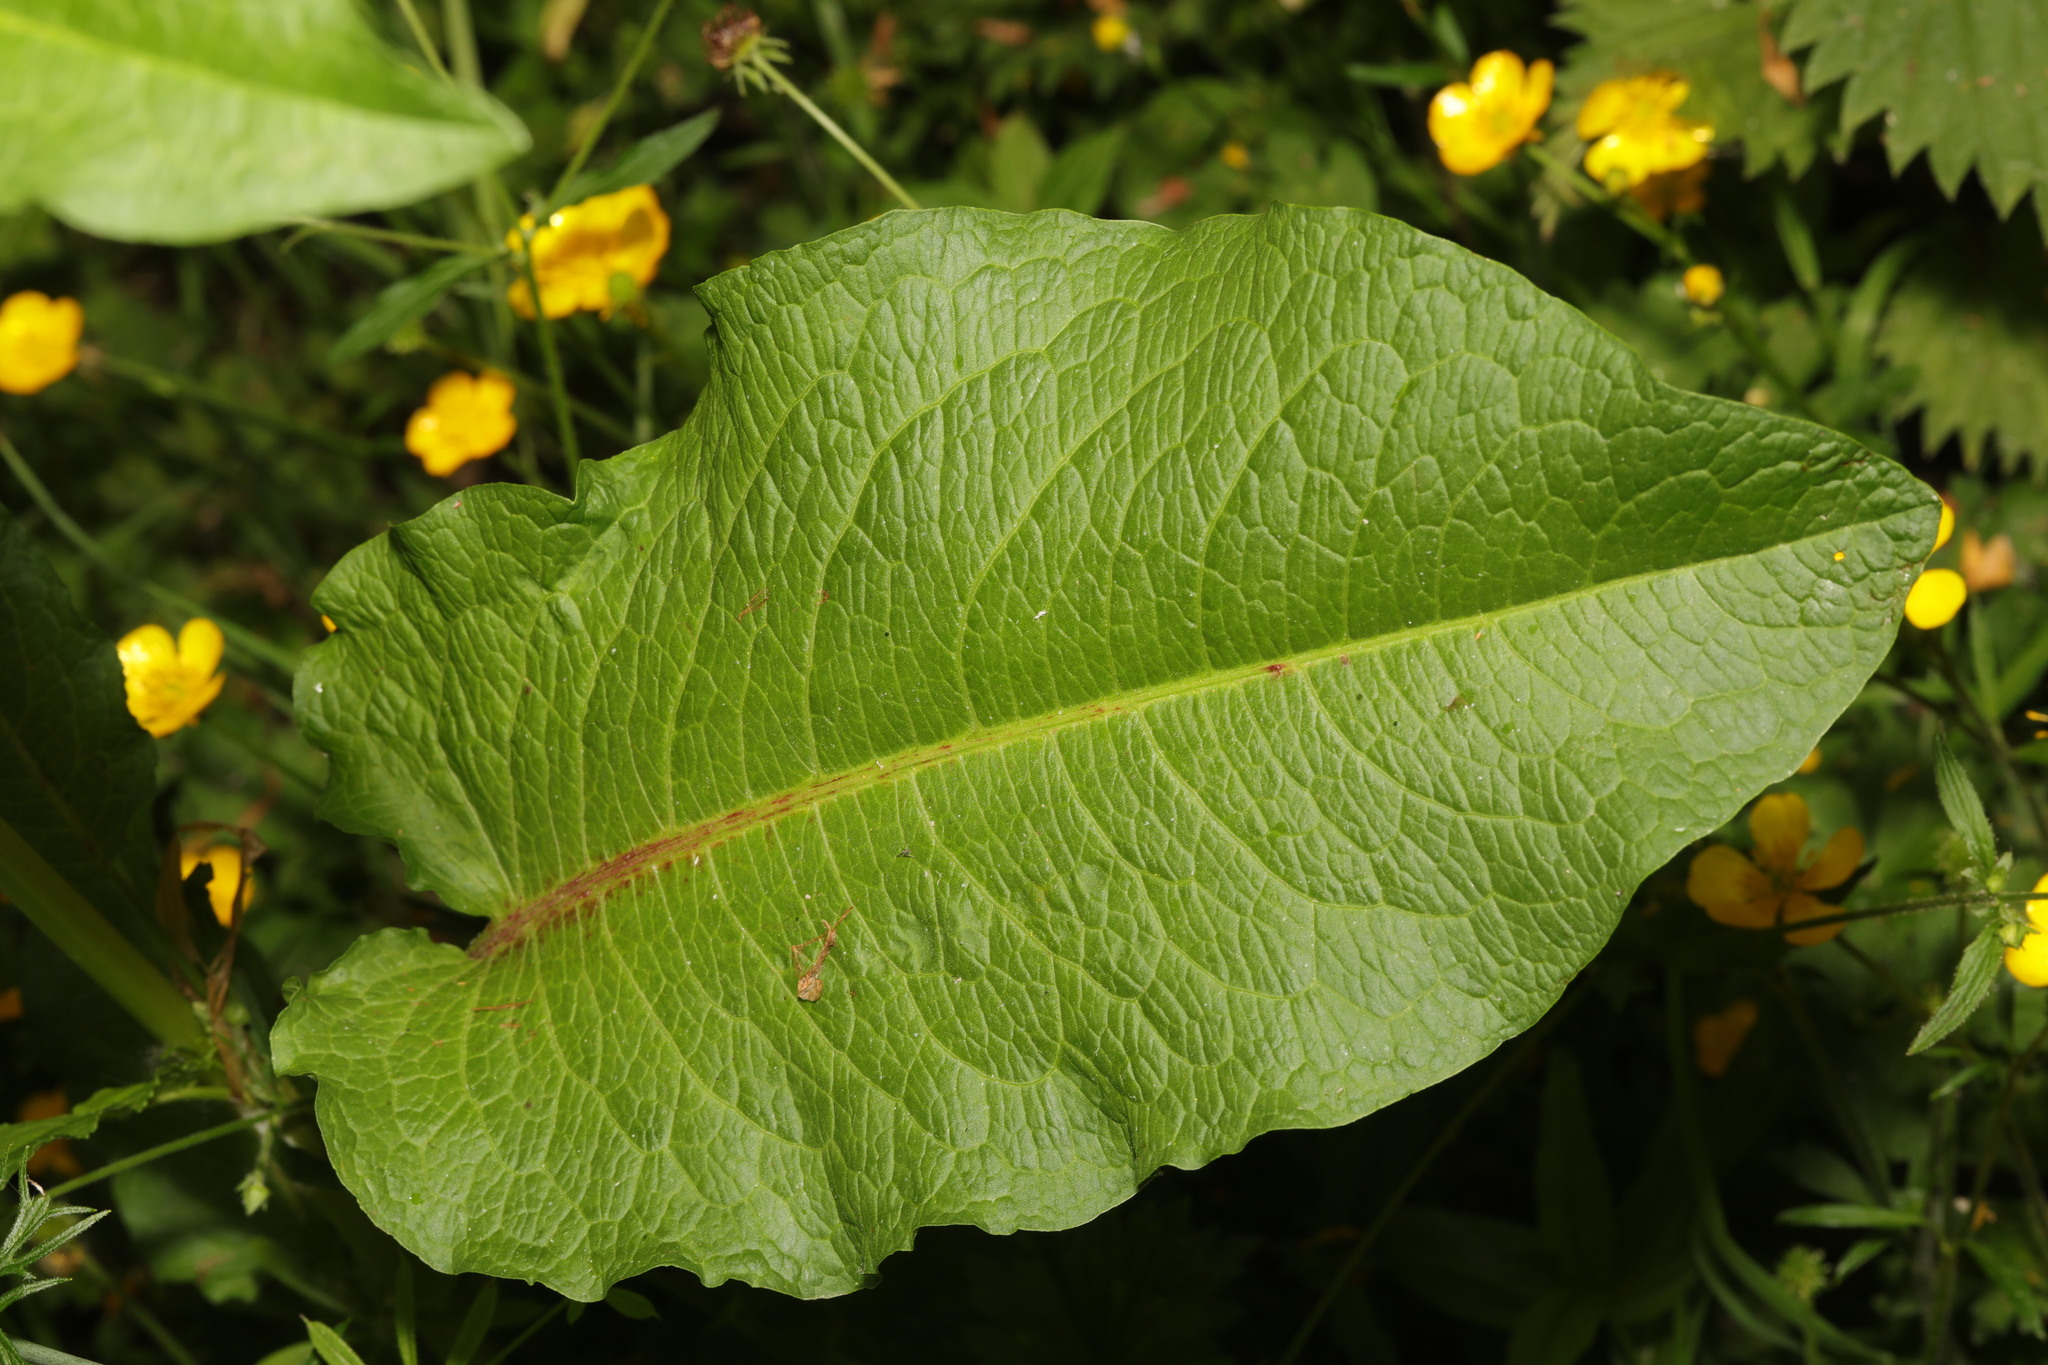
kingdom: Plantae
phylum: Tracheophyta
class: Magnoliopsida
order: Caryophyllales
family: Polygonaceae
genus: Rumex
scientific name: Rumex obtusifolius
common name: Bitter dock
